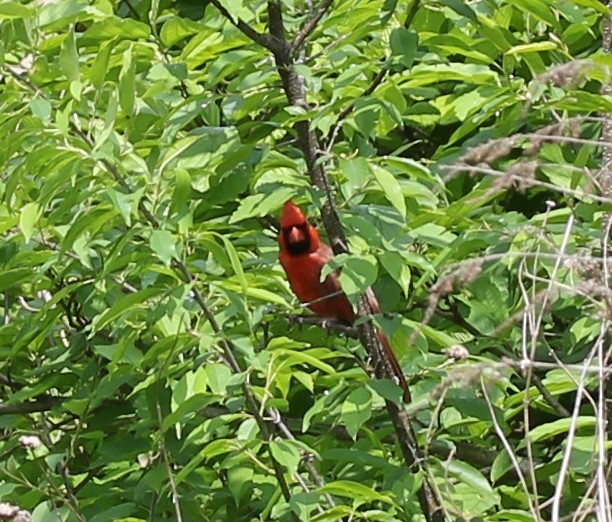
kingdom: Animalia
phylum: Chordata
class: Aves
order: Passeriformes
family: Cardinalidae
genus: Cardinalis
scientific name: Cardinalis cardinalis
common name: Northern cardinal
